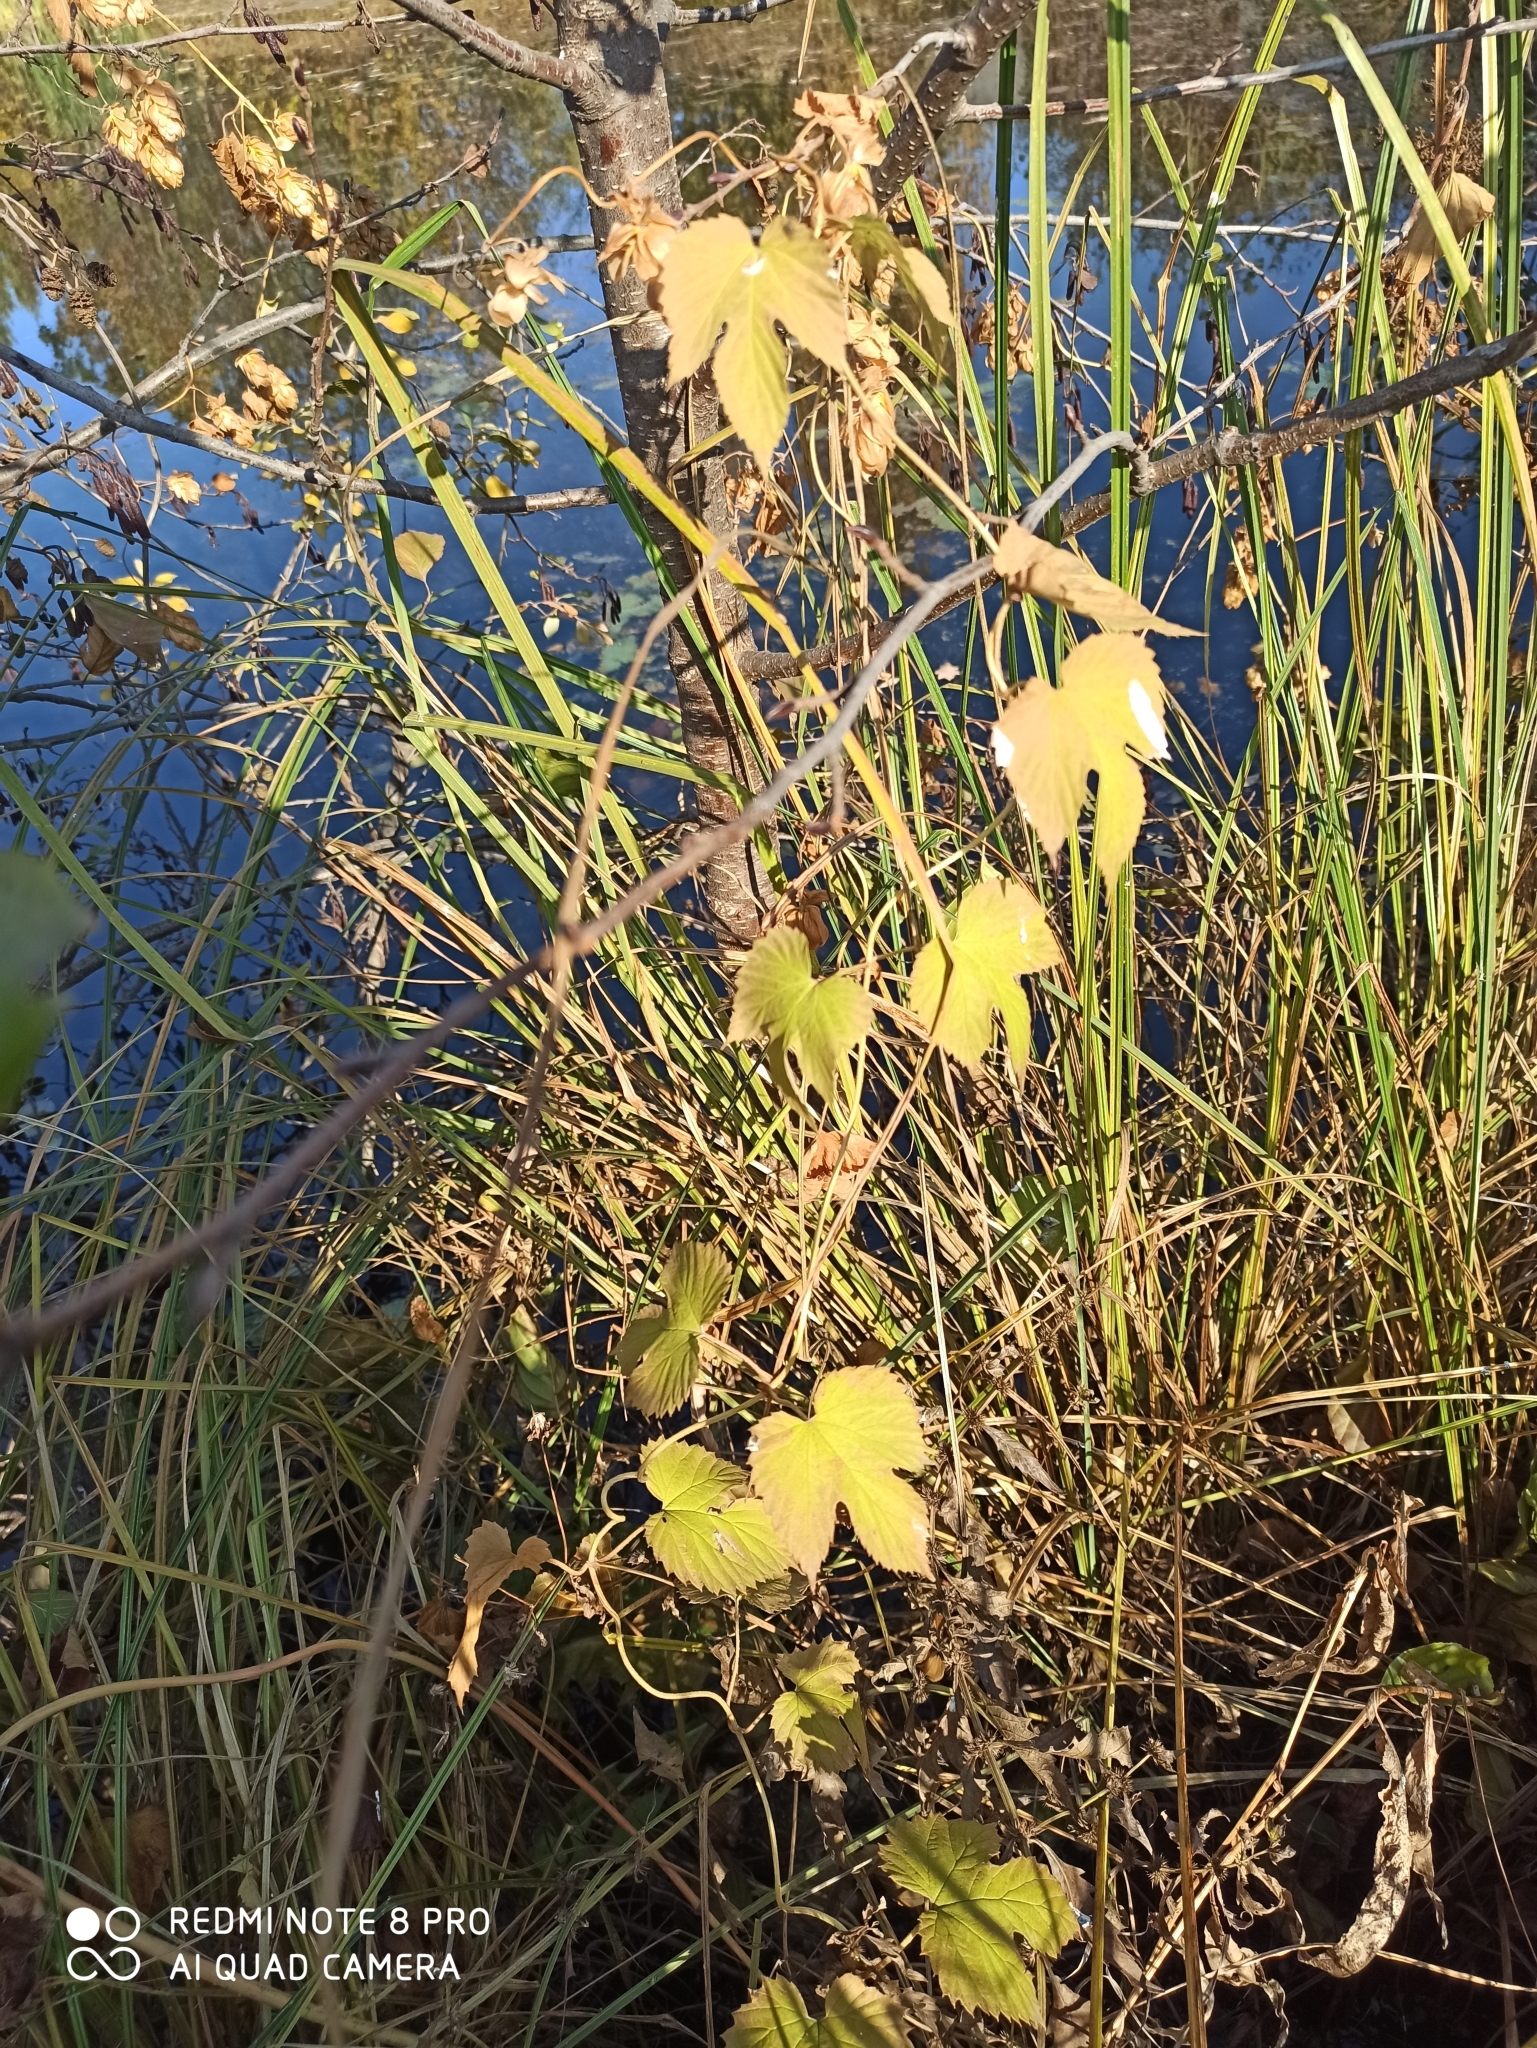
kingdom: Plantae
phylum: Tracheophyta
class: Magnoliopsida
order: Rosales
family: Cannabaceae
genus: Humulus
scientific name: Humulus lupulus
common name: Hop
